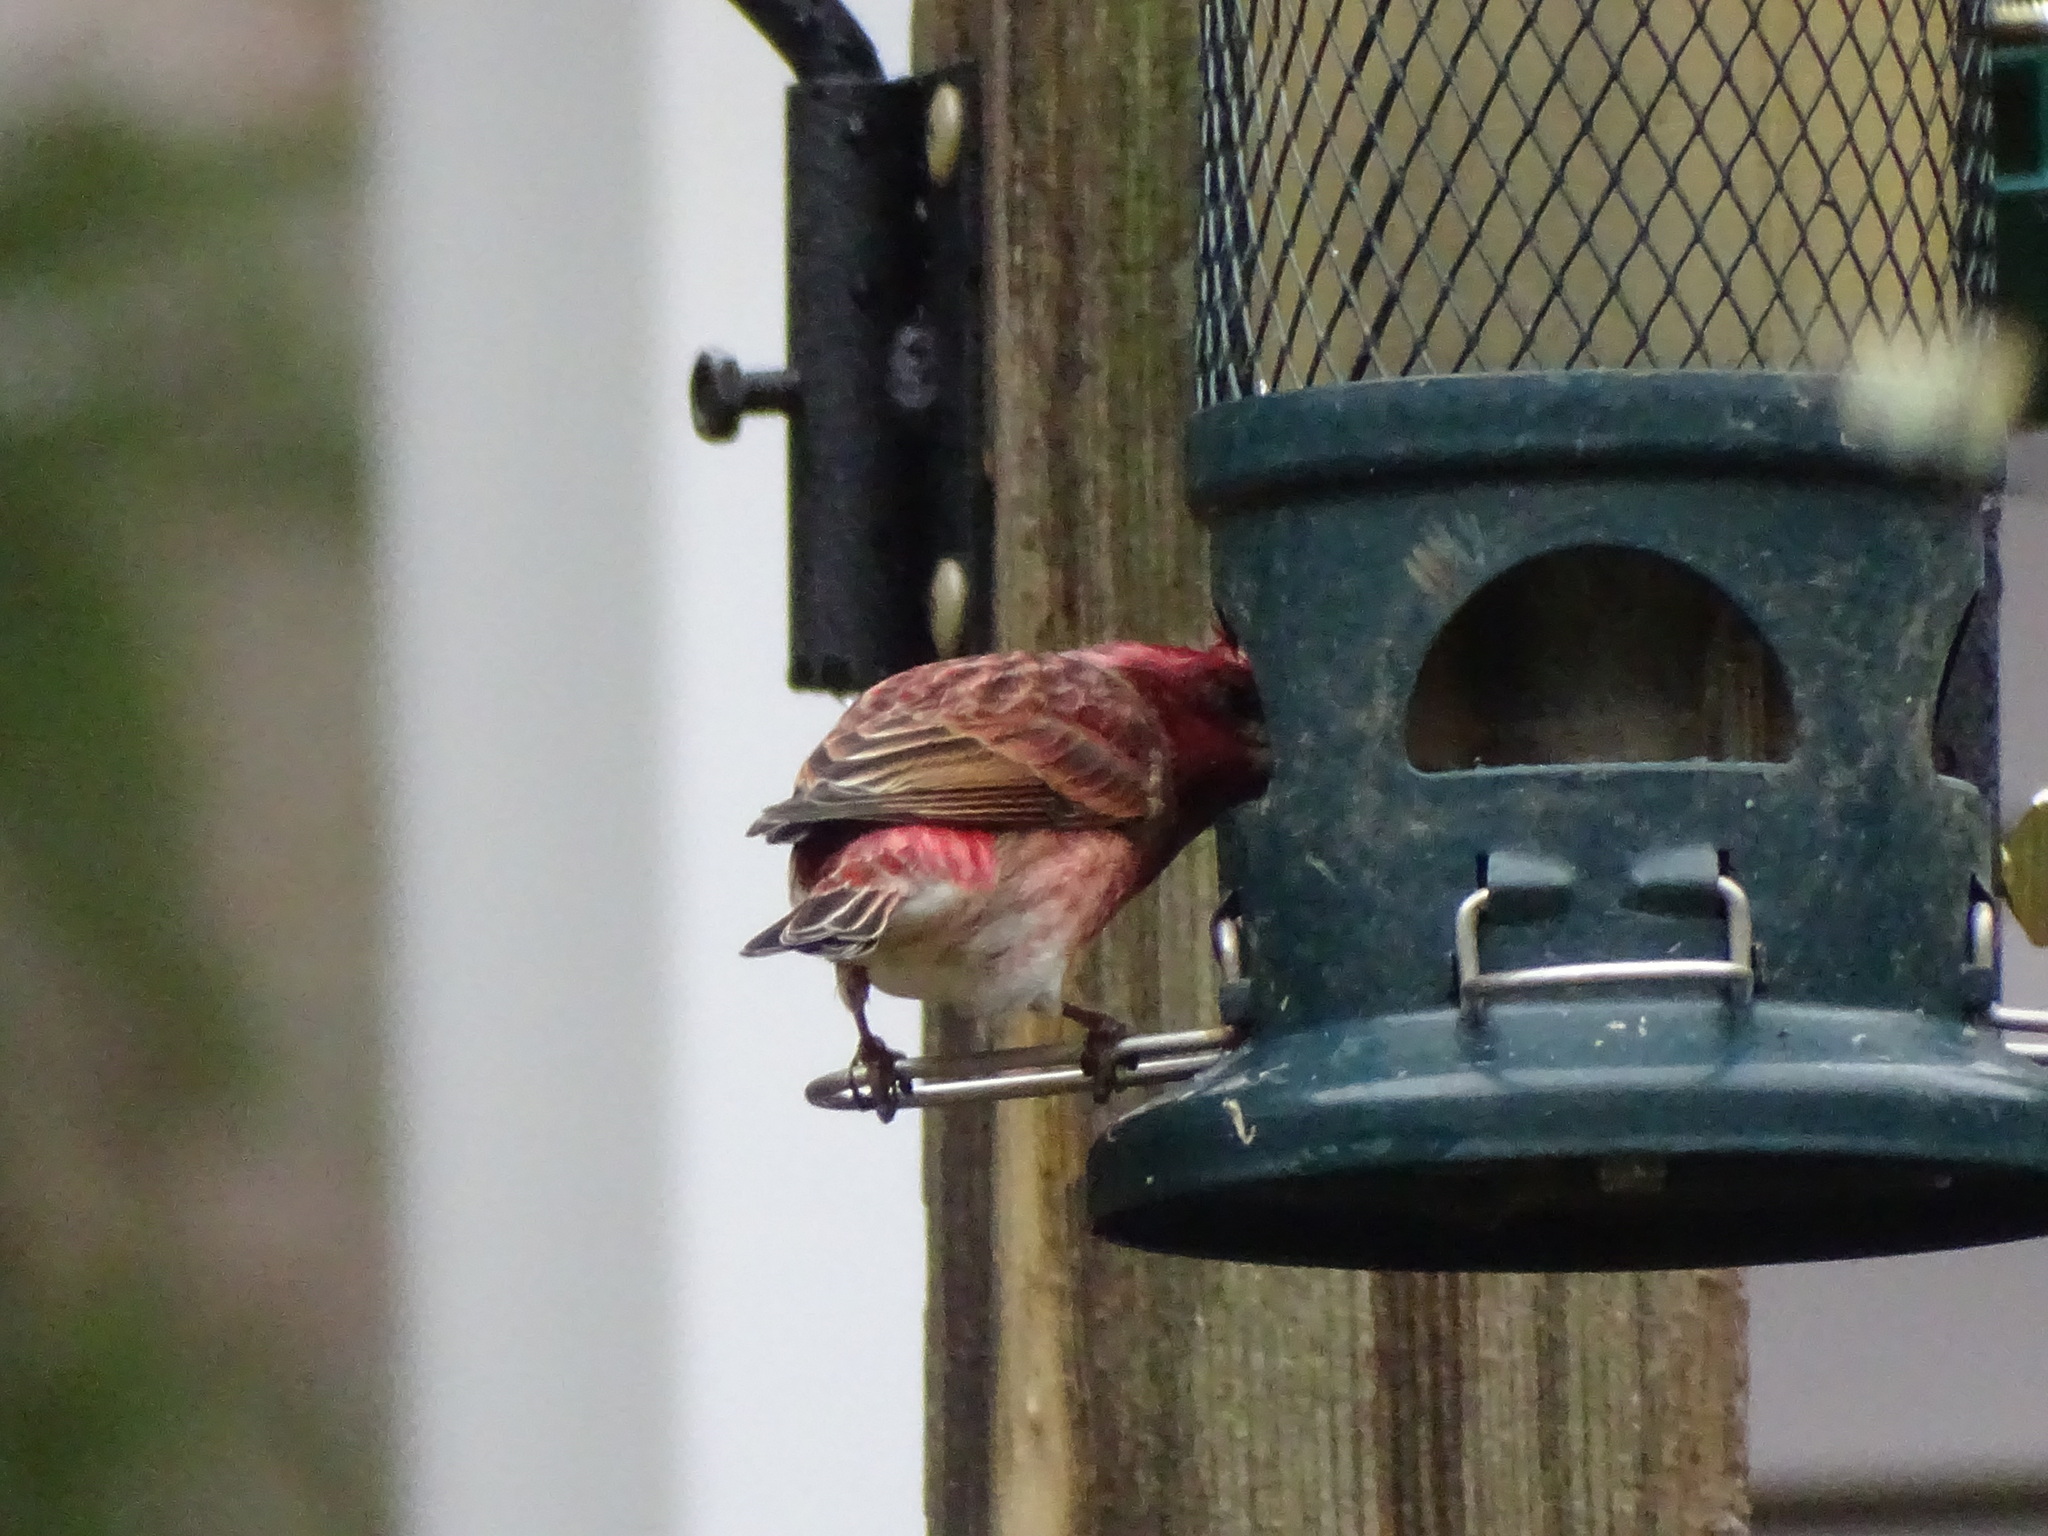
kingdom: Animalia
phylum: Chordata
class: Aves
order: Passeriformes
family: Fringillidae
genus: Haemorhous
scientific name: Haemorhous purpureus
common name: Purple finch
